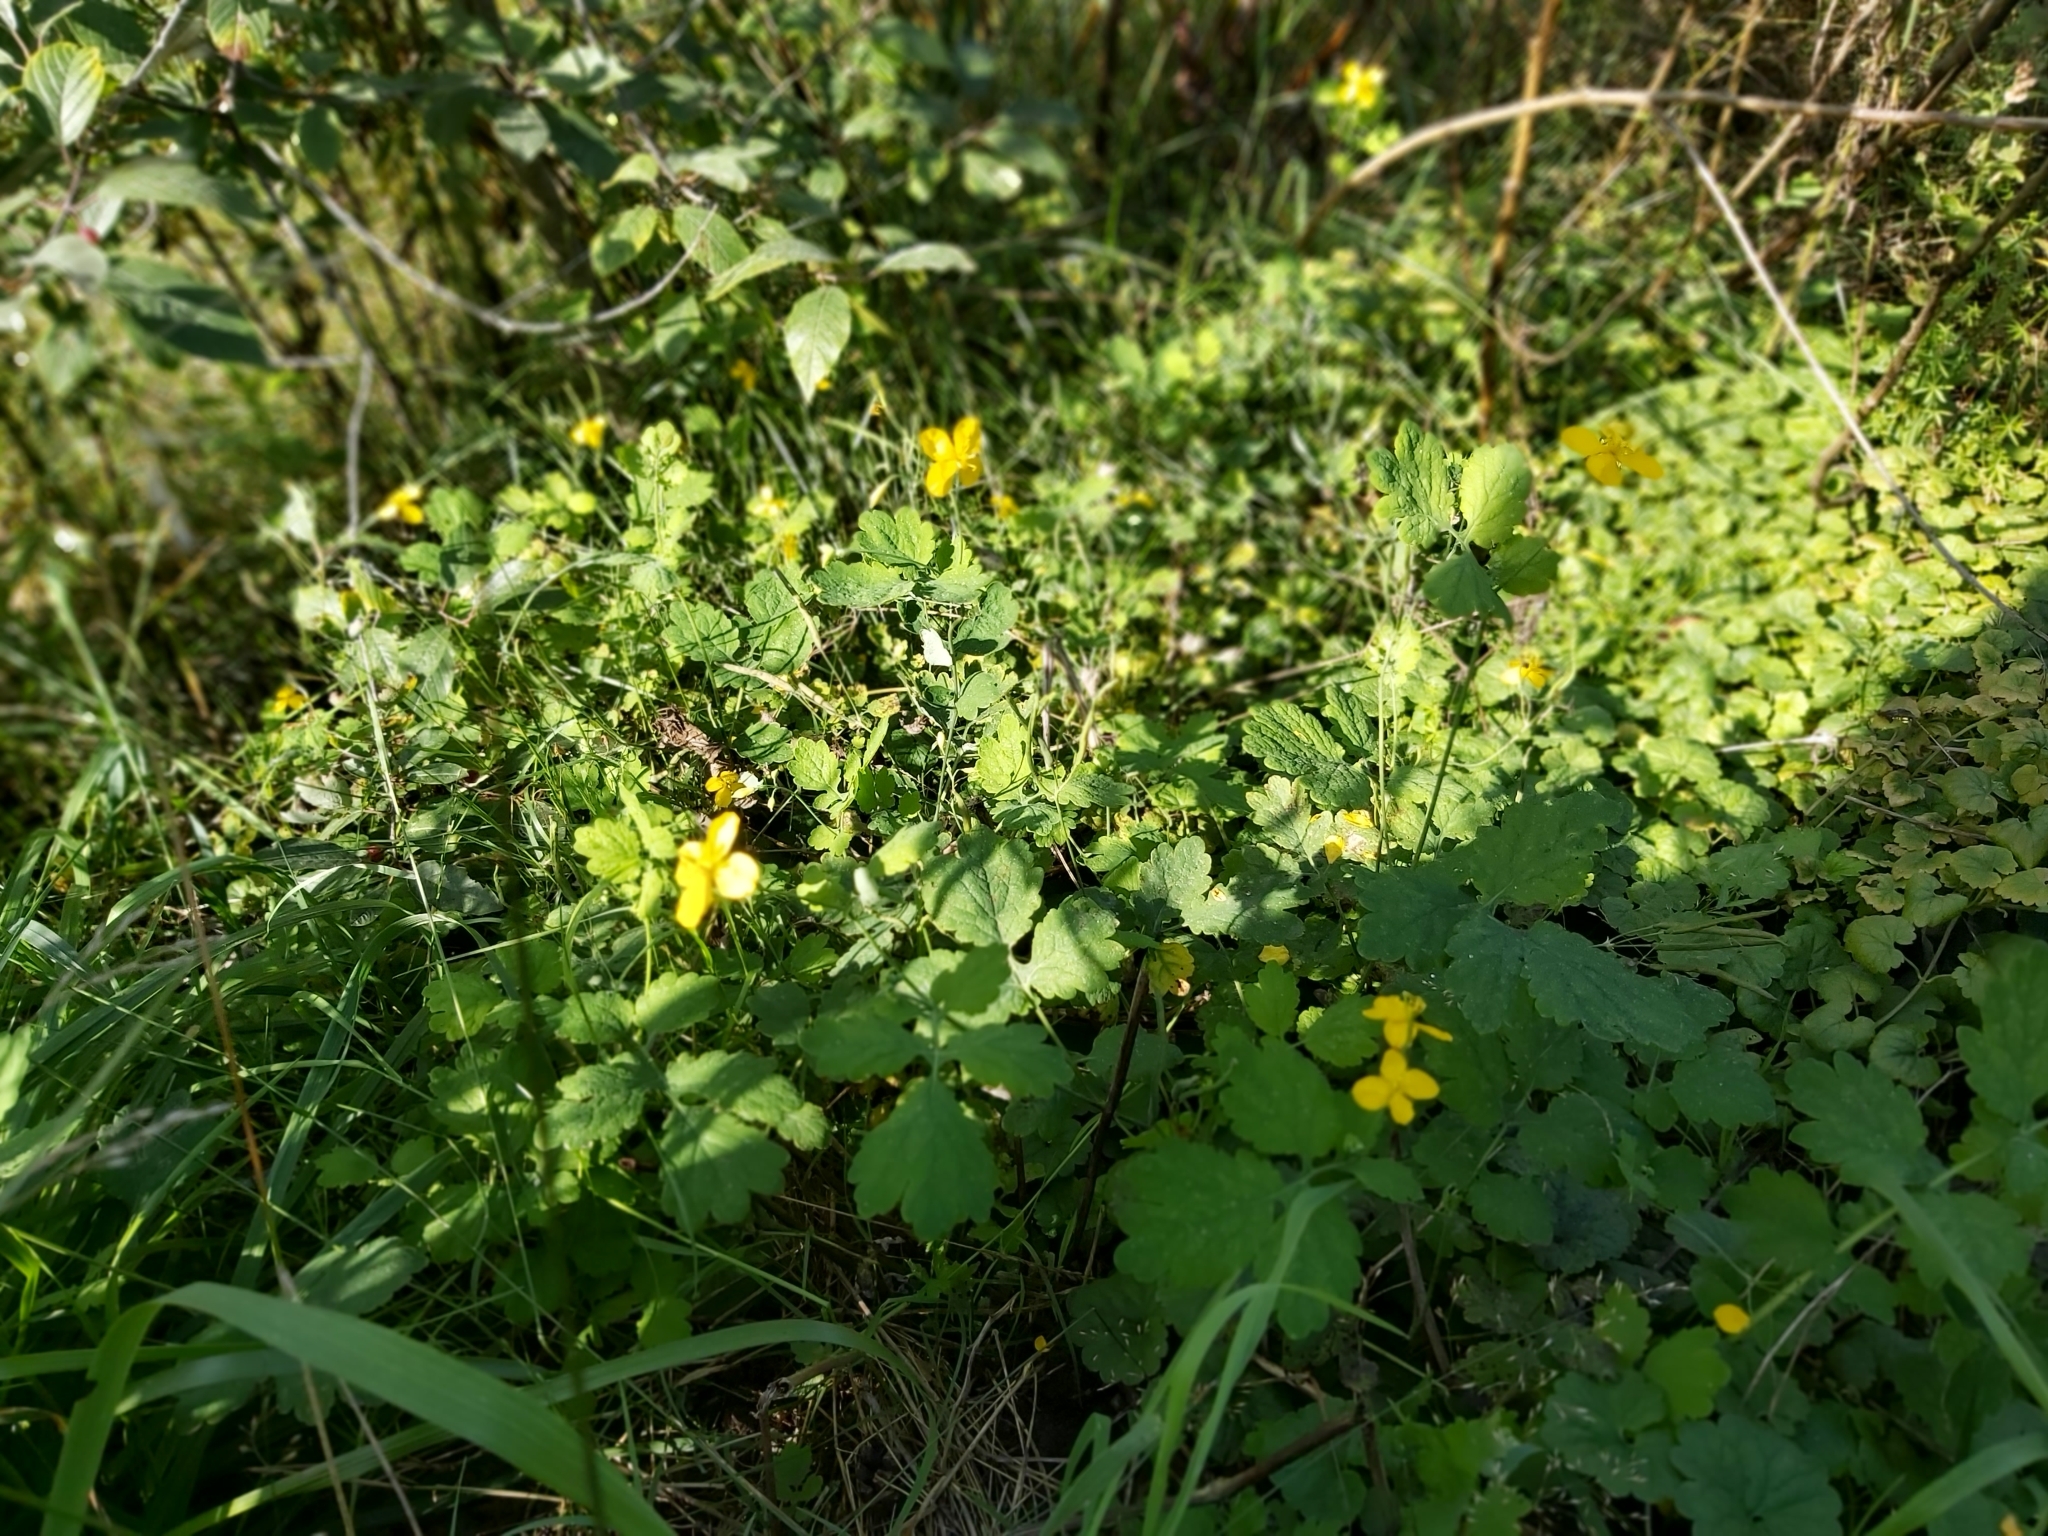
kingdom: Plantae
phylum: Tracheophyta
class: Magnoliopsida
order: Ranunculales
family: Papaveraceae
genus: Chelidonium
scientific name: Chelidonium majus
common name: Greater celandine
